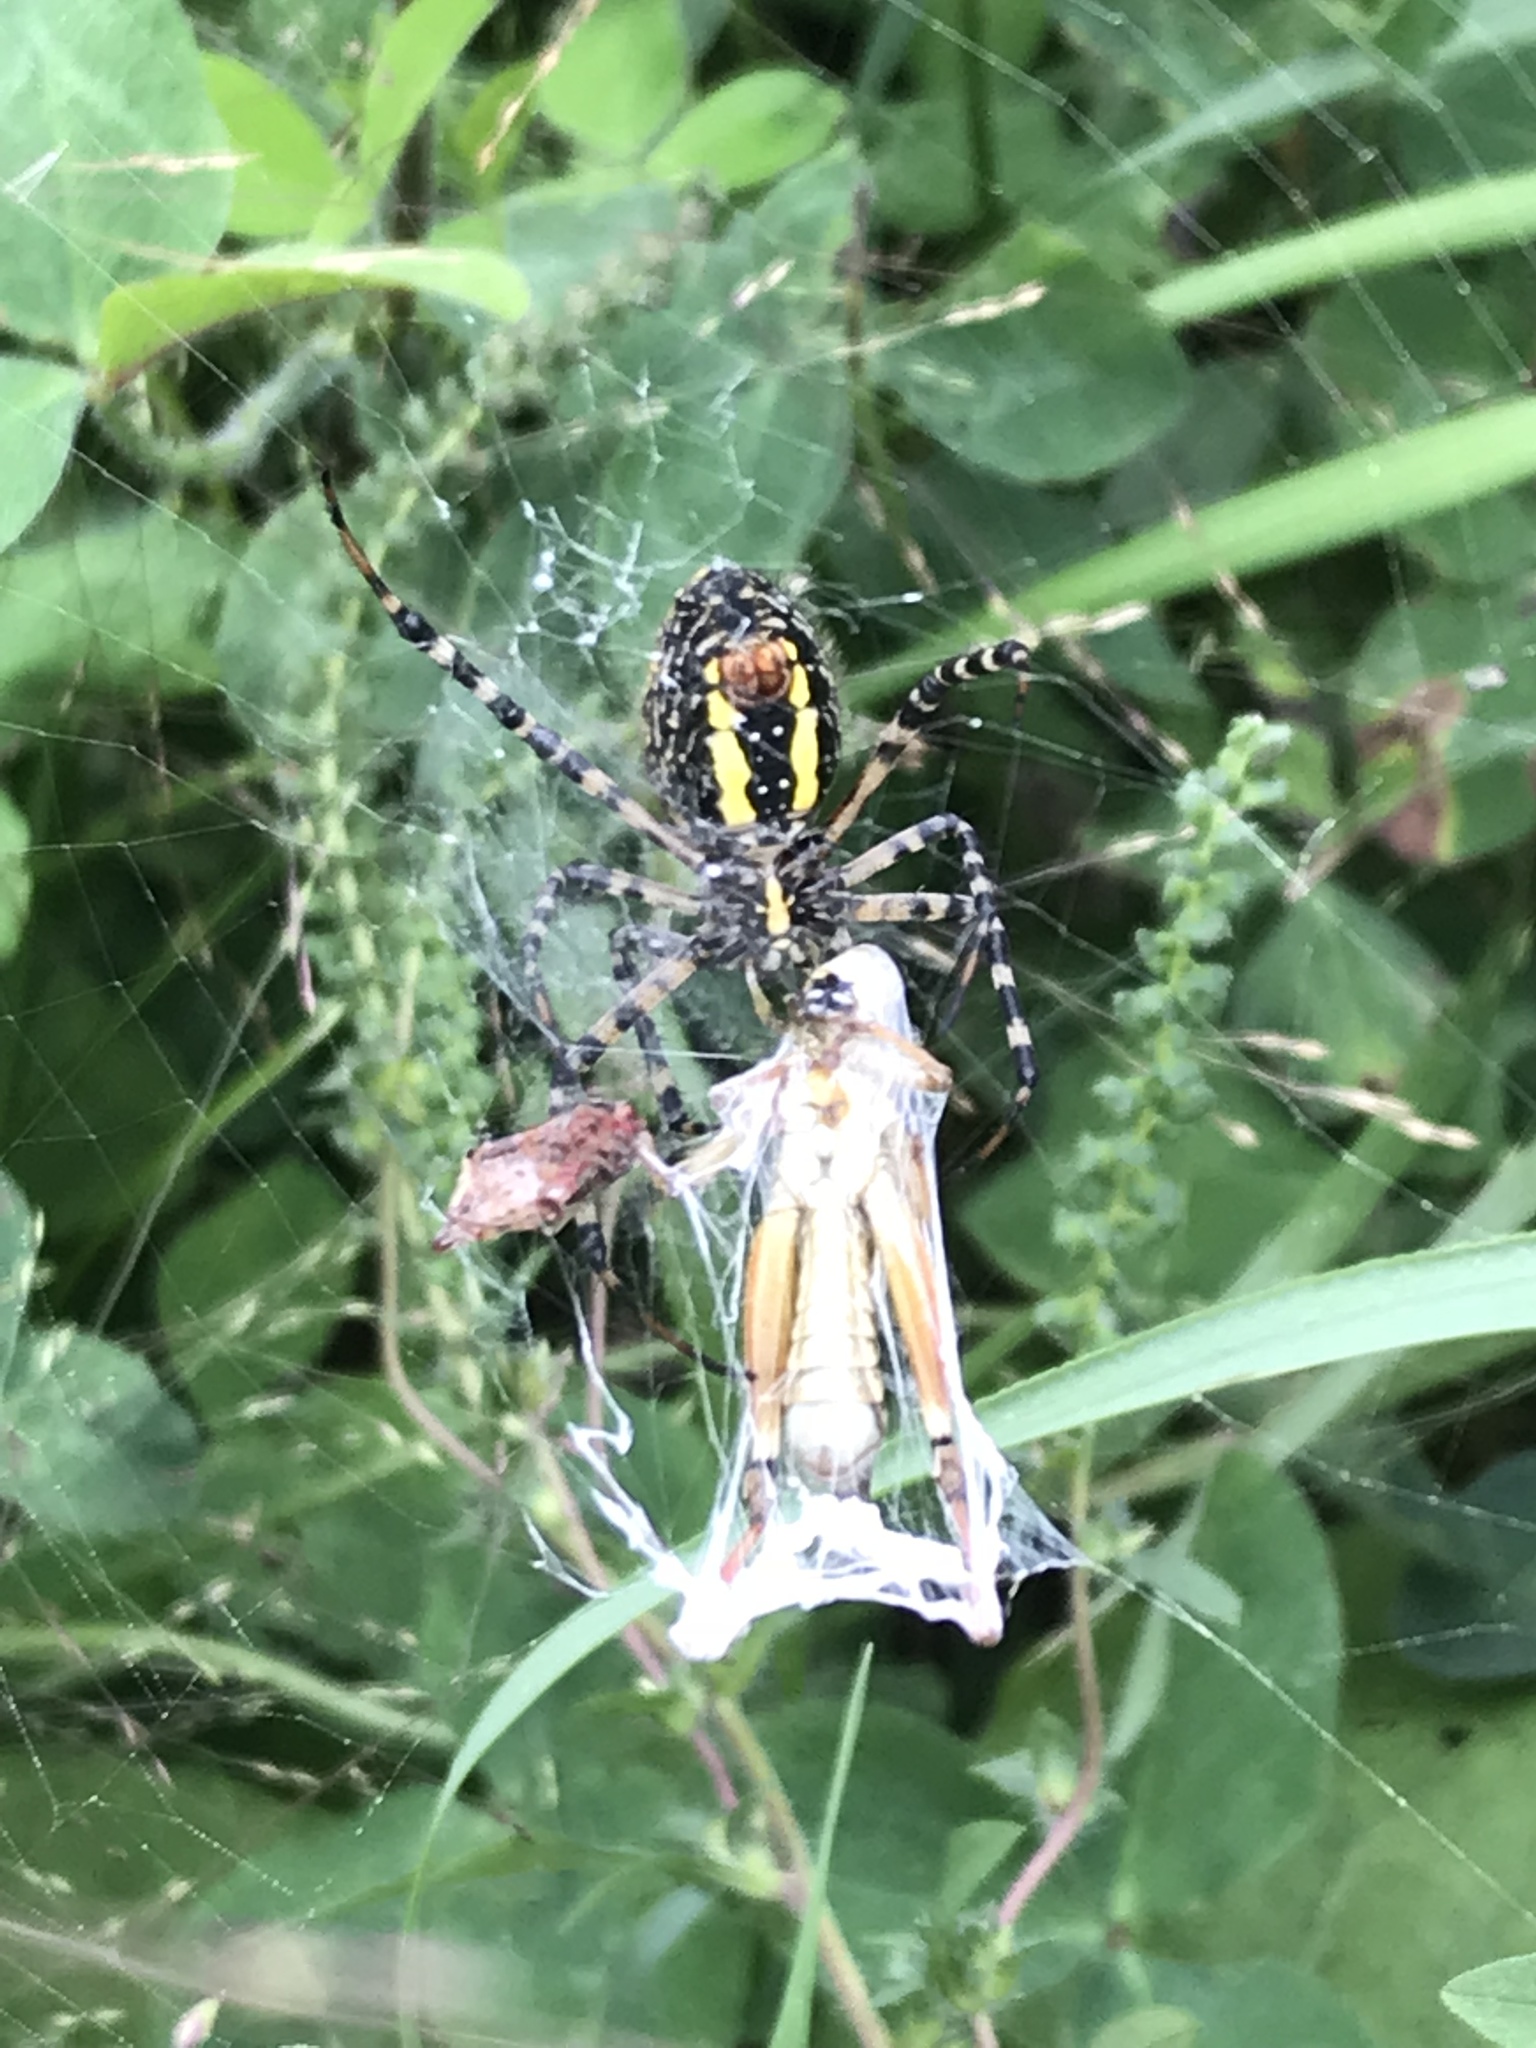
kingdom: Animalia
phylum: Arthropoda
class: Arachnida
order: Araneae
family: Araneidae
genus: Argiope
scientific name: Argiope trifasciata
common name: Banded garden spider
